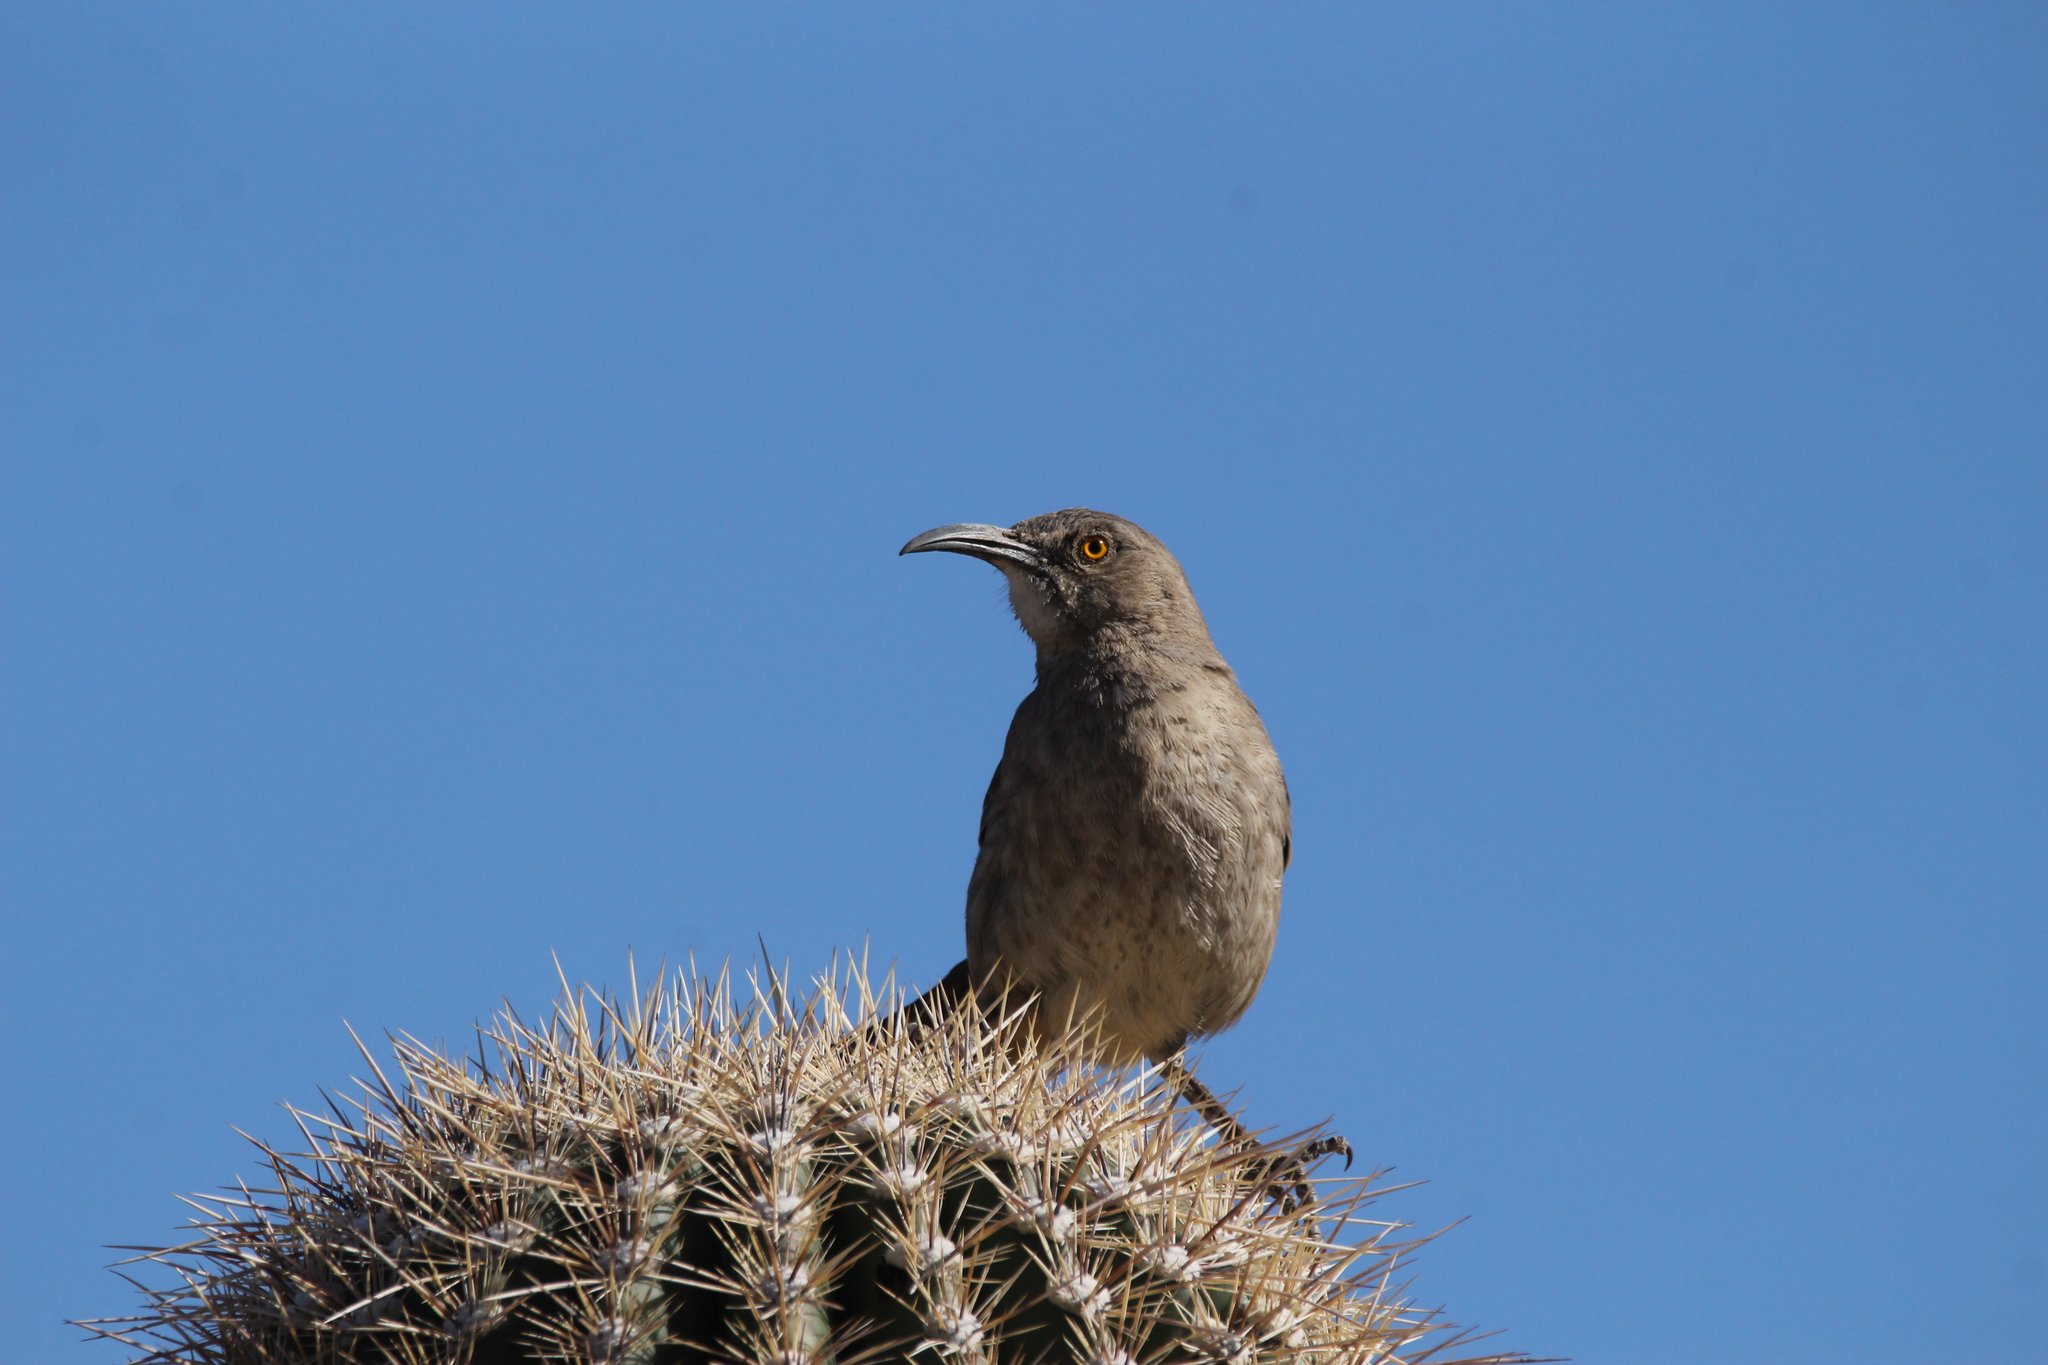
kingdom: Animalia
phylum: Chordata
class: Aves
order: Passeriformes
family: Mimidae
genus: Toxostoma
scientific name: Toxostoma curvirostre
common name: Curve-billed thrasher
